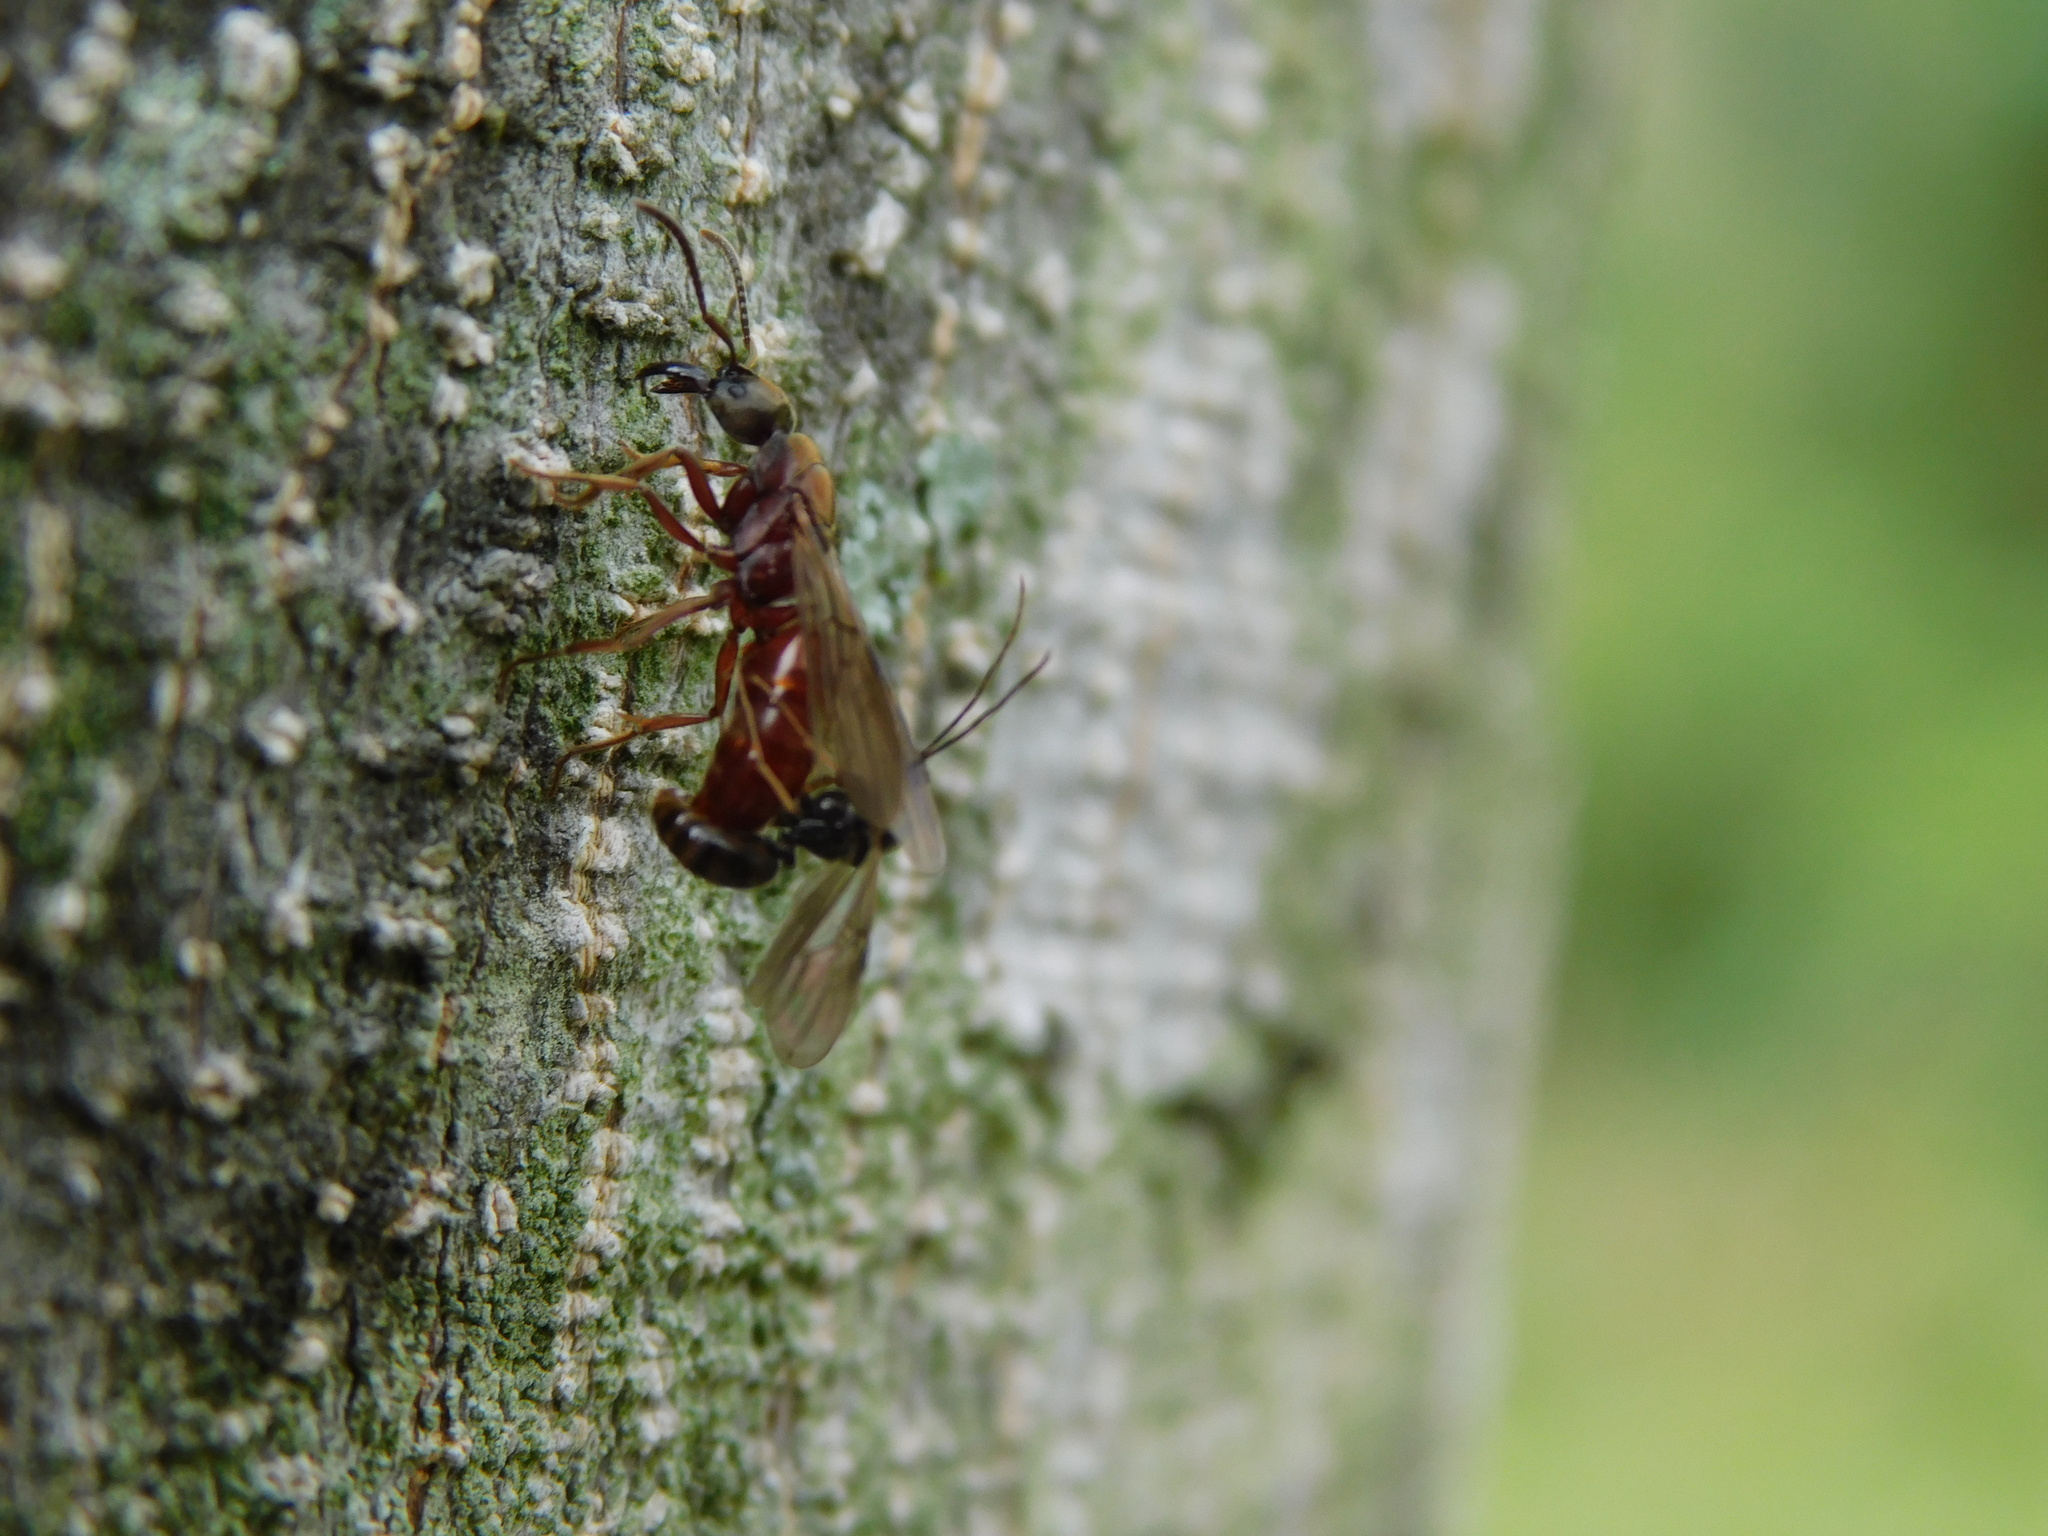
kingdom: Animalia
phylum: Arthropoda
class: Insecta
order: Hymenoptera
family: Formicidae
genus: Buniapone
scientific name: Buniapone
